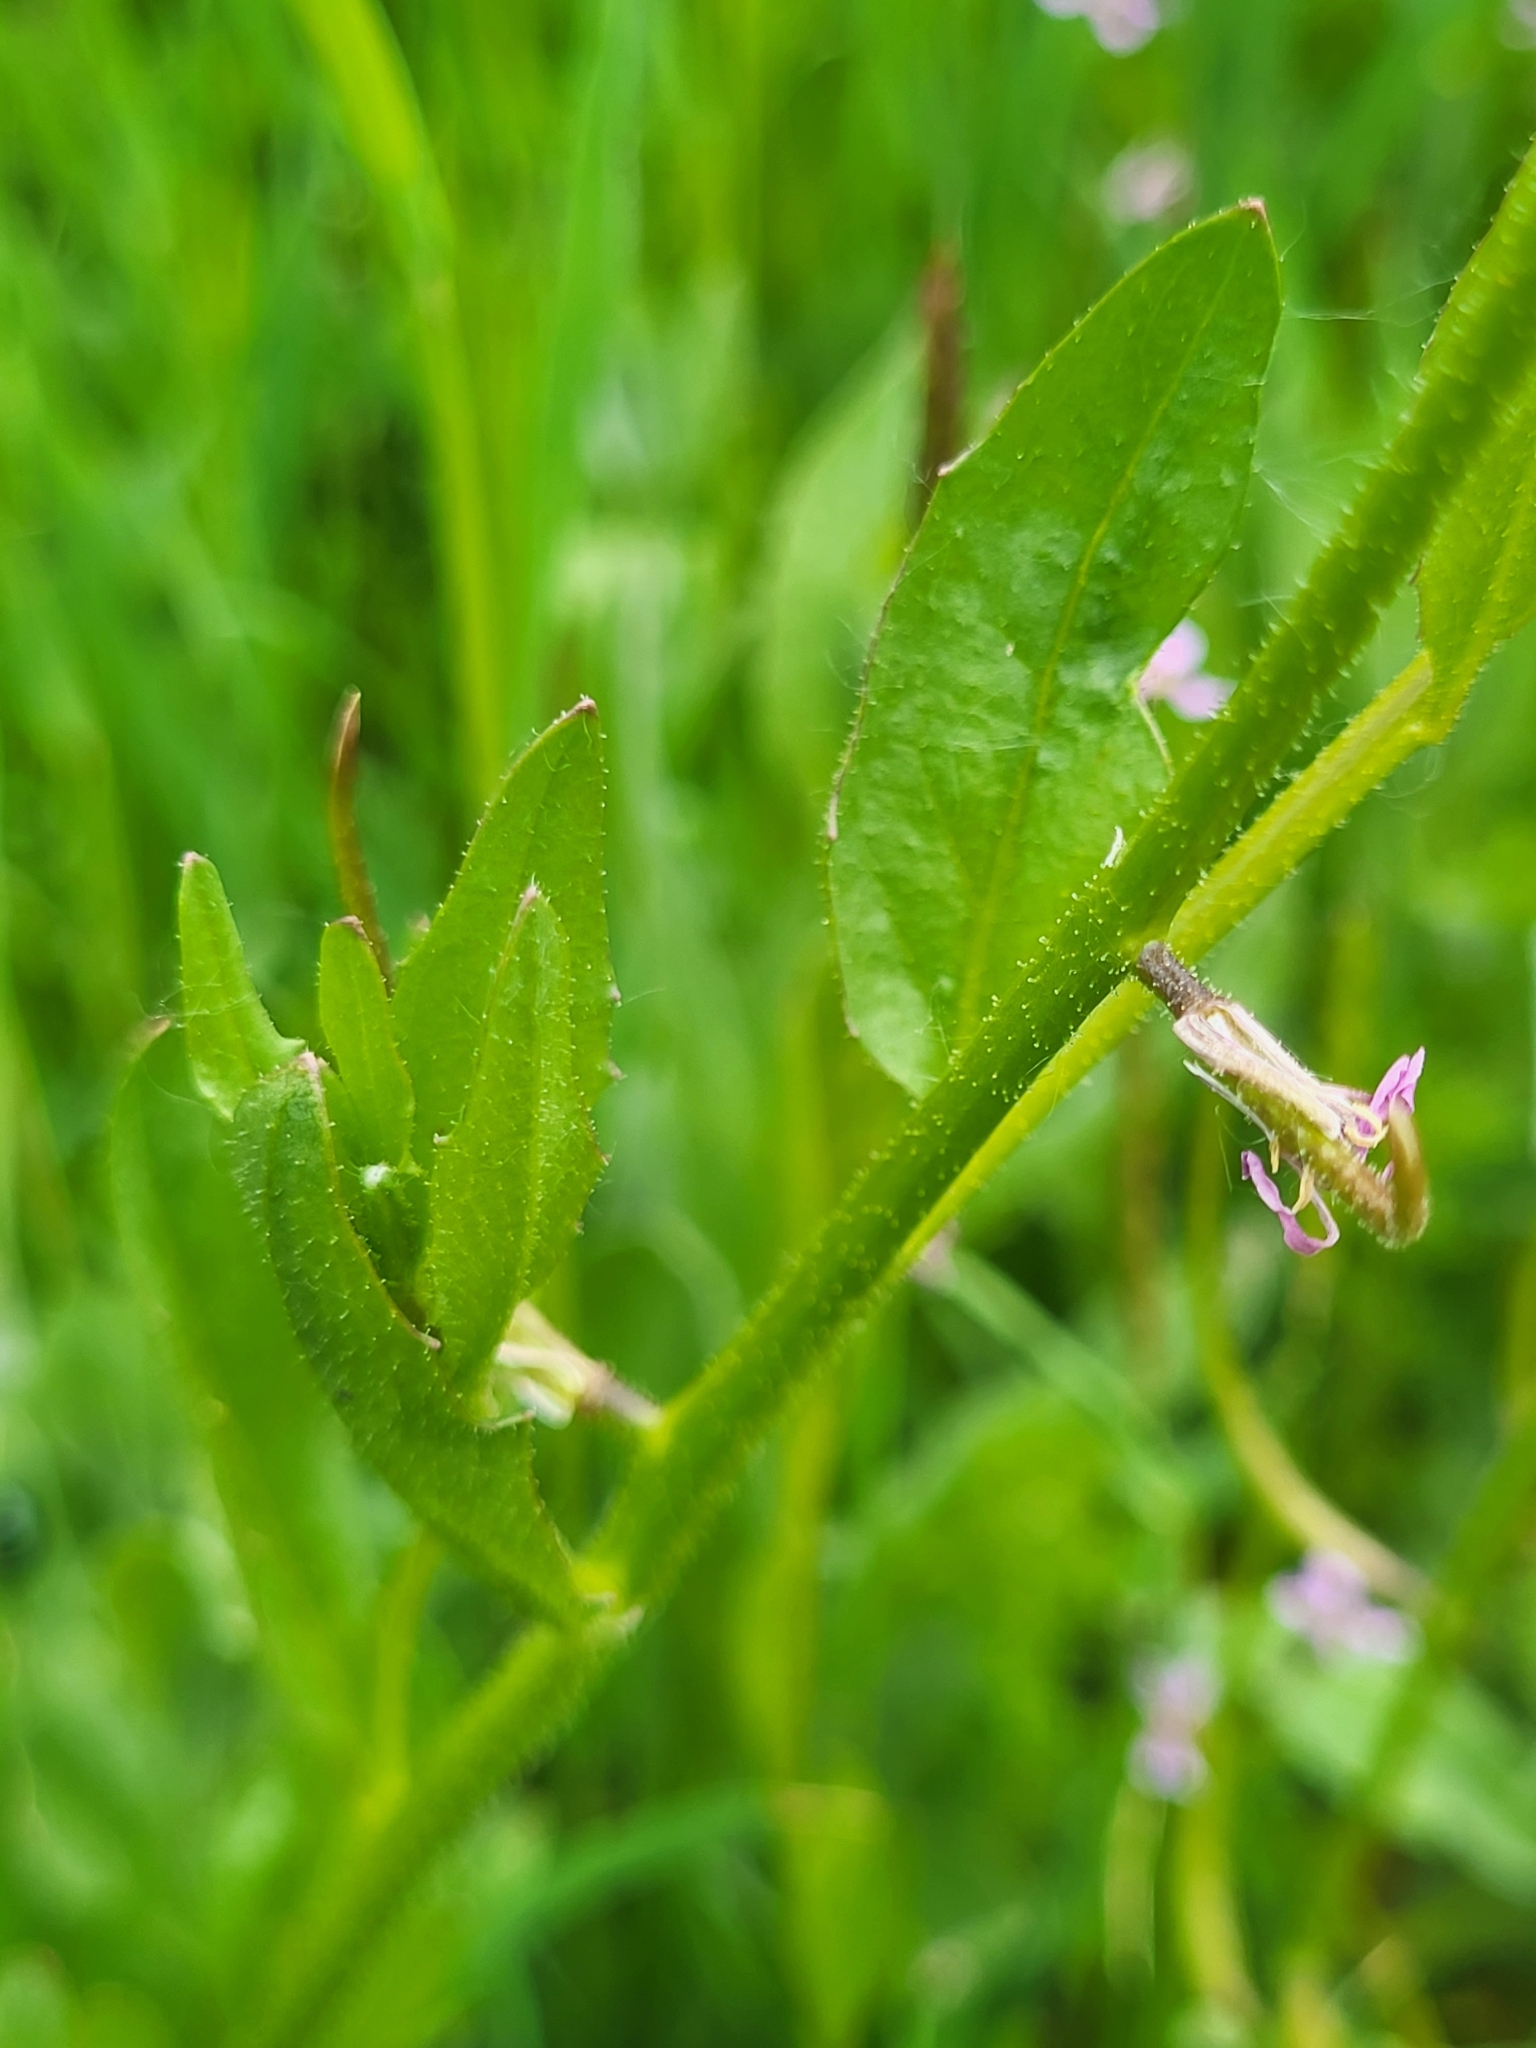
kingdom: Plantae
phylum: Tracheophyta
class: Magnoliopsida
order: Brassicales
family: Brassicaceae
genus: Chorispora
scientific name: Chorispora tenella
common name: Crossflower
